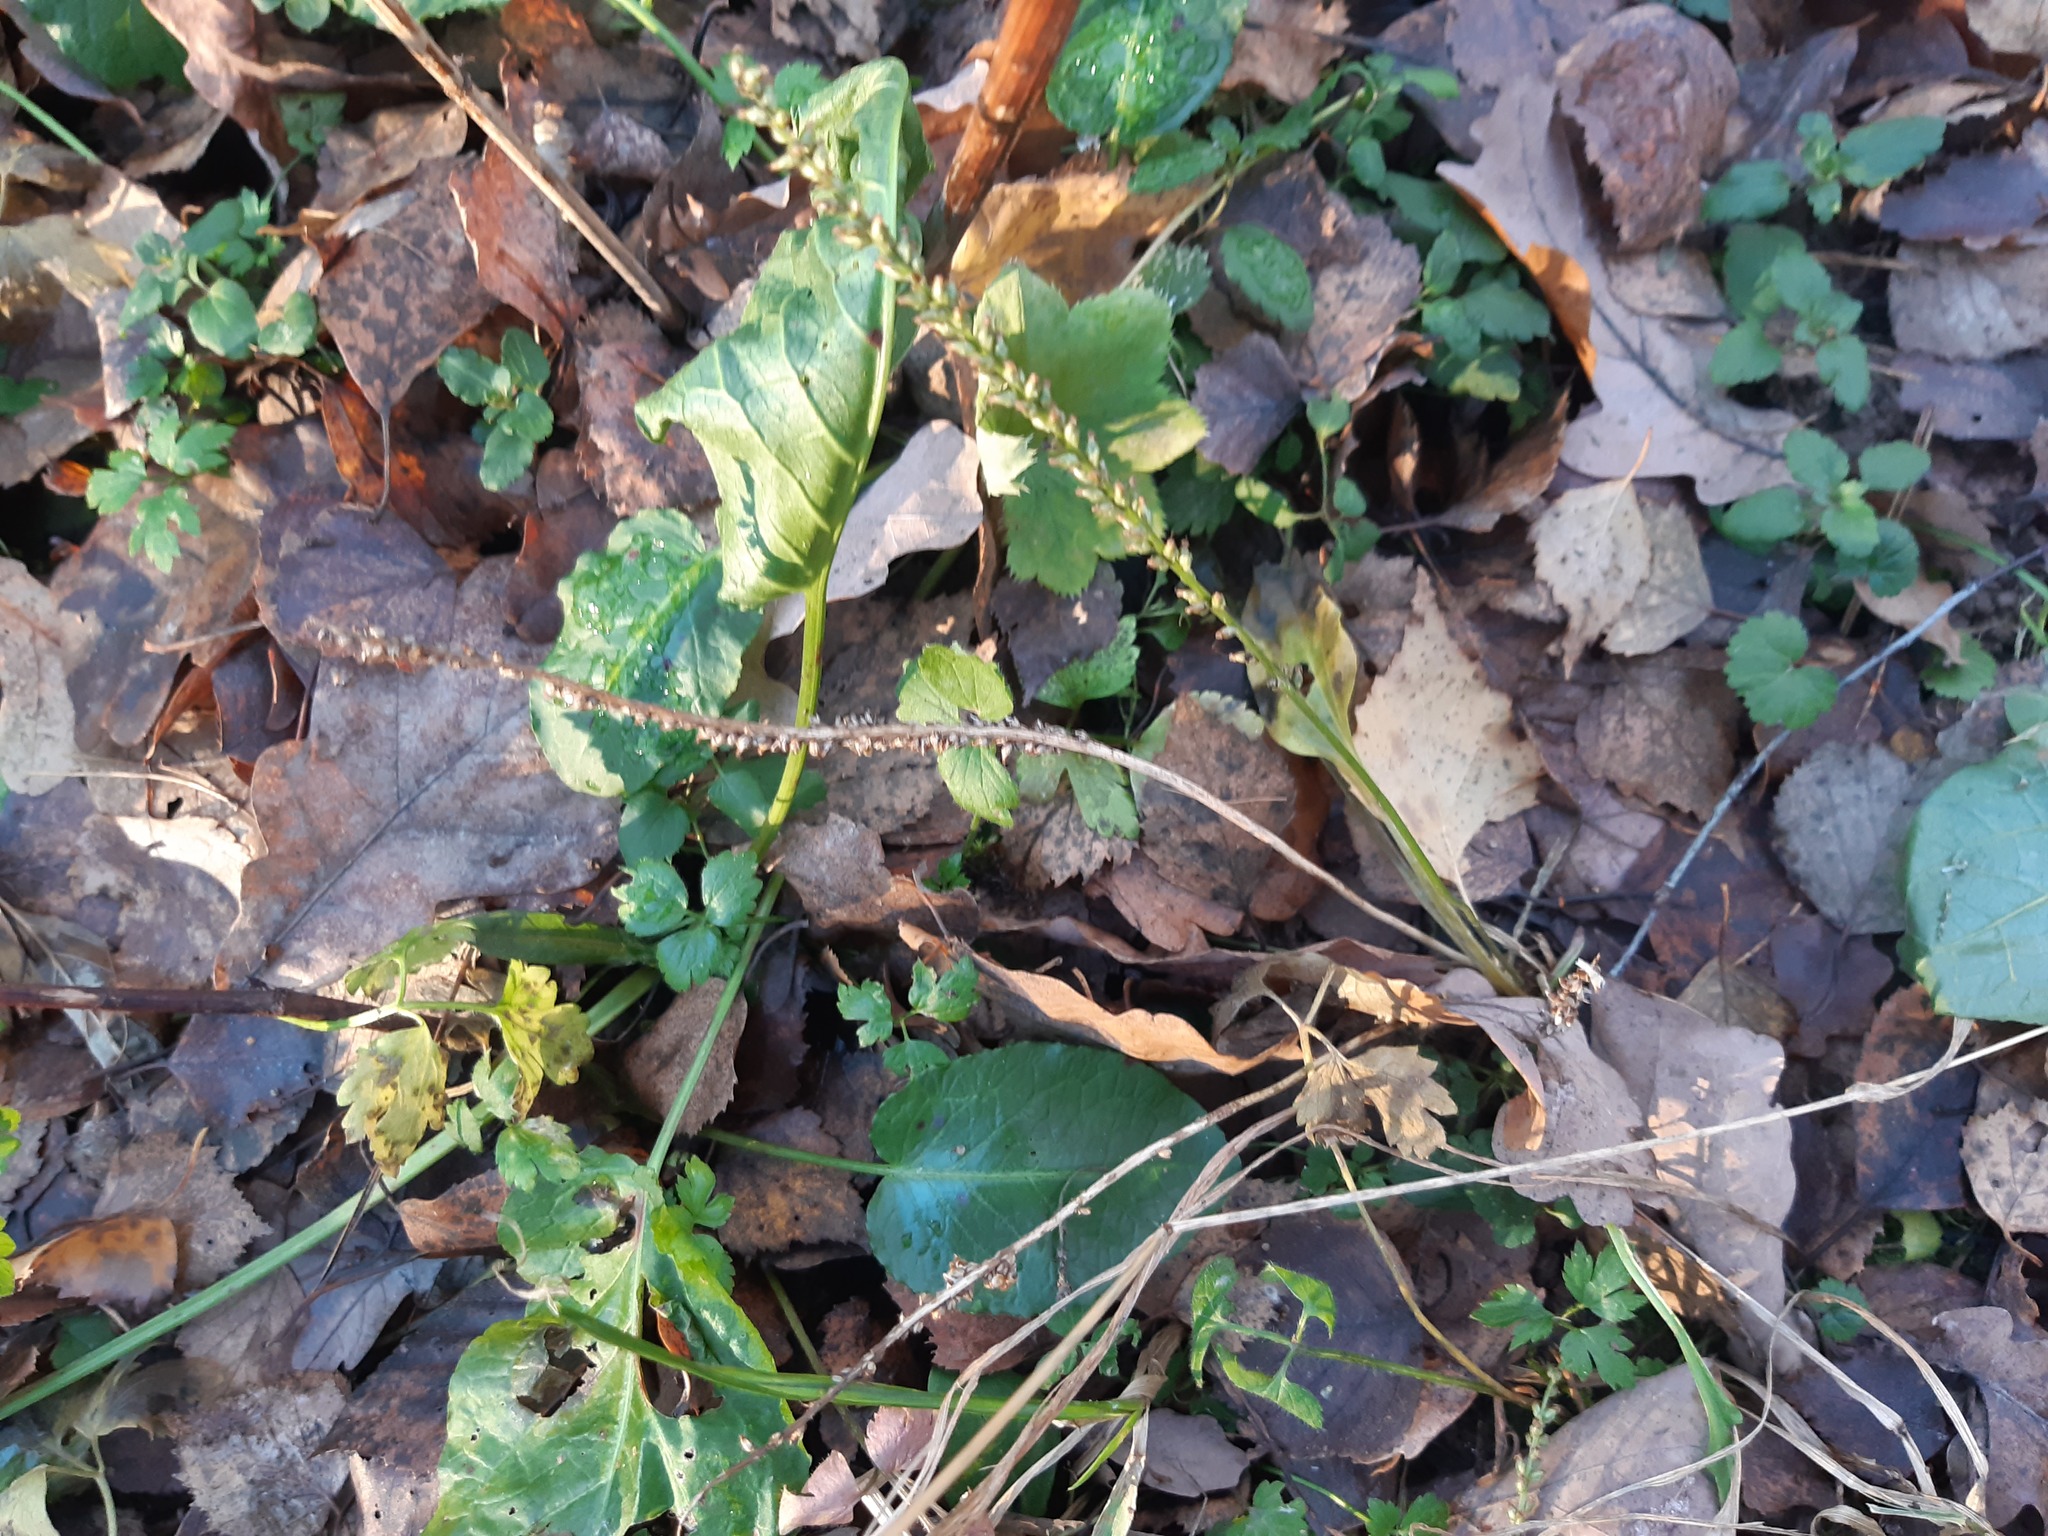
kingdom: Plantae
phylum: Tracheophyta
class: Magnoliopsida
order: Lamiales
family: Plantaginaceae
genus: Plantago
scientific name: Plantago major
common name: Common plantain
